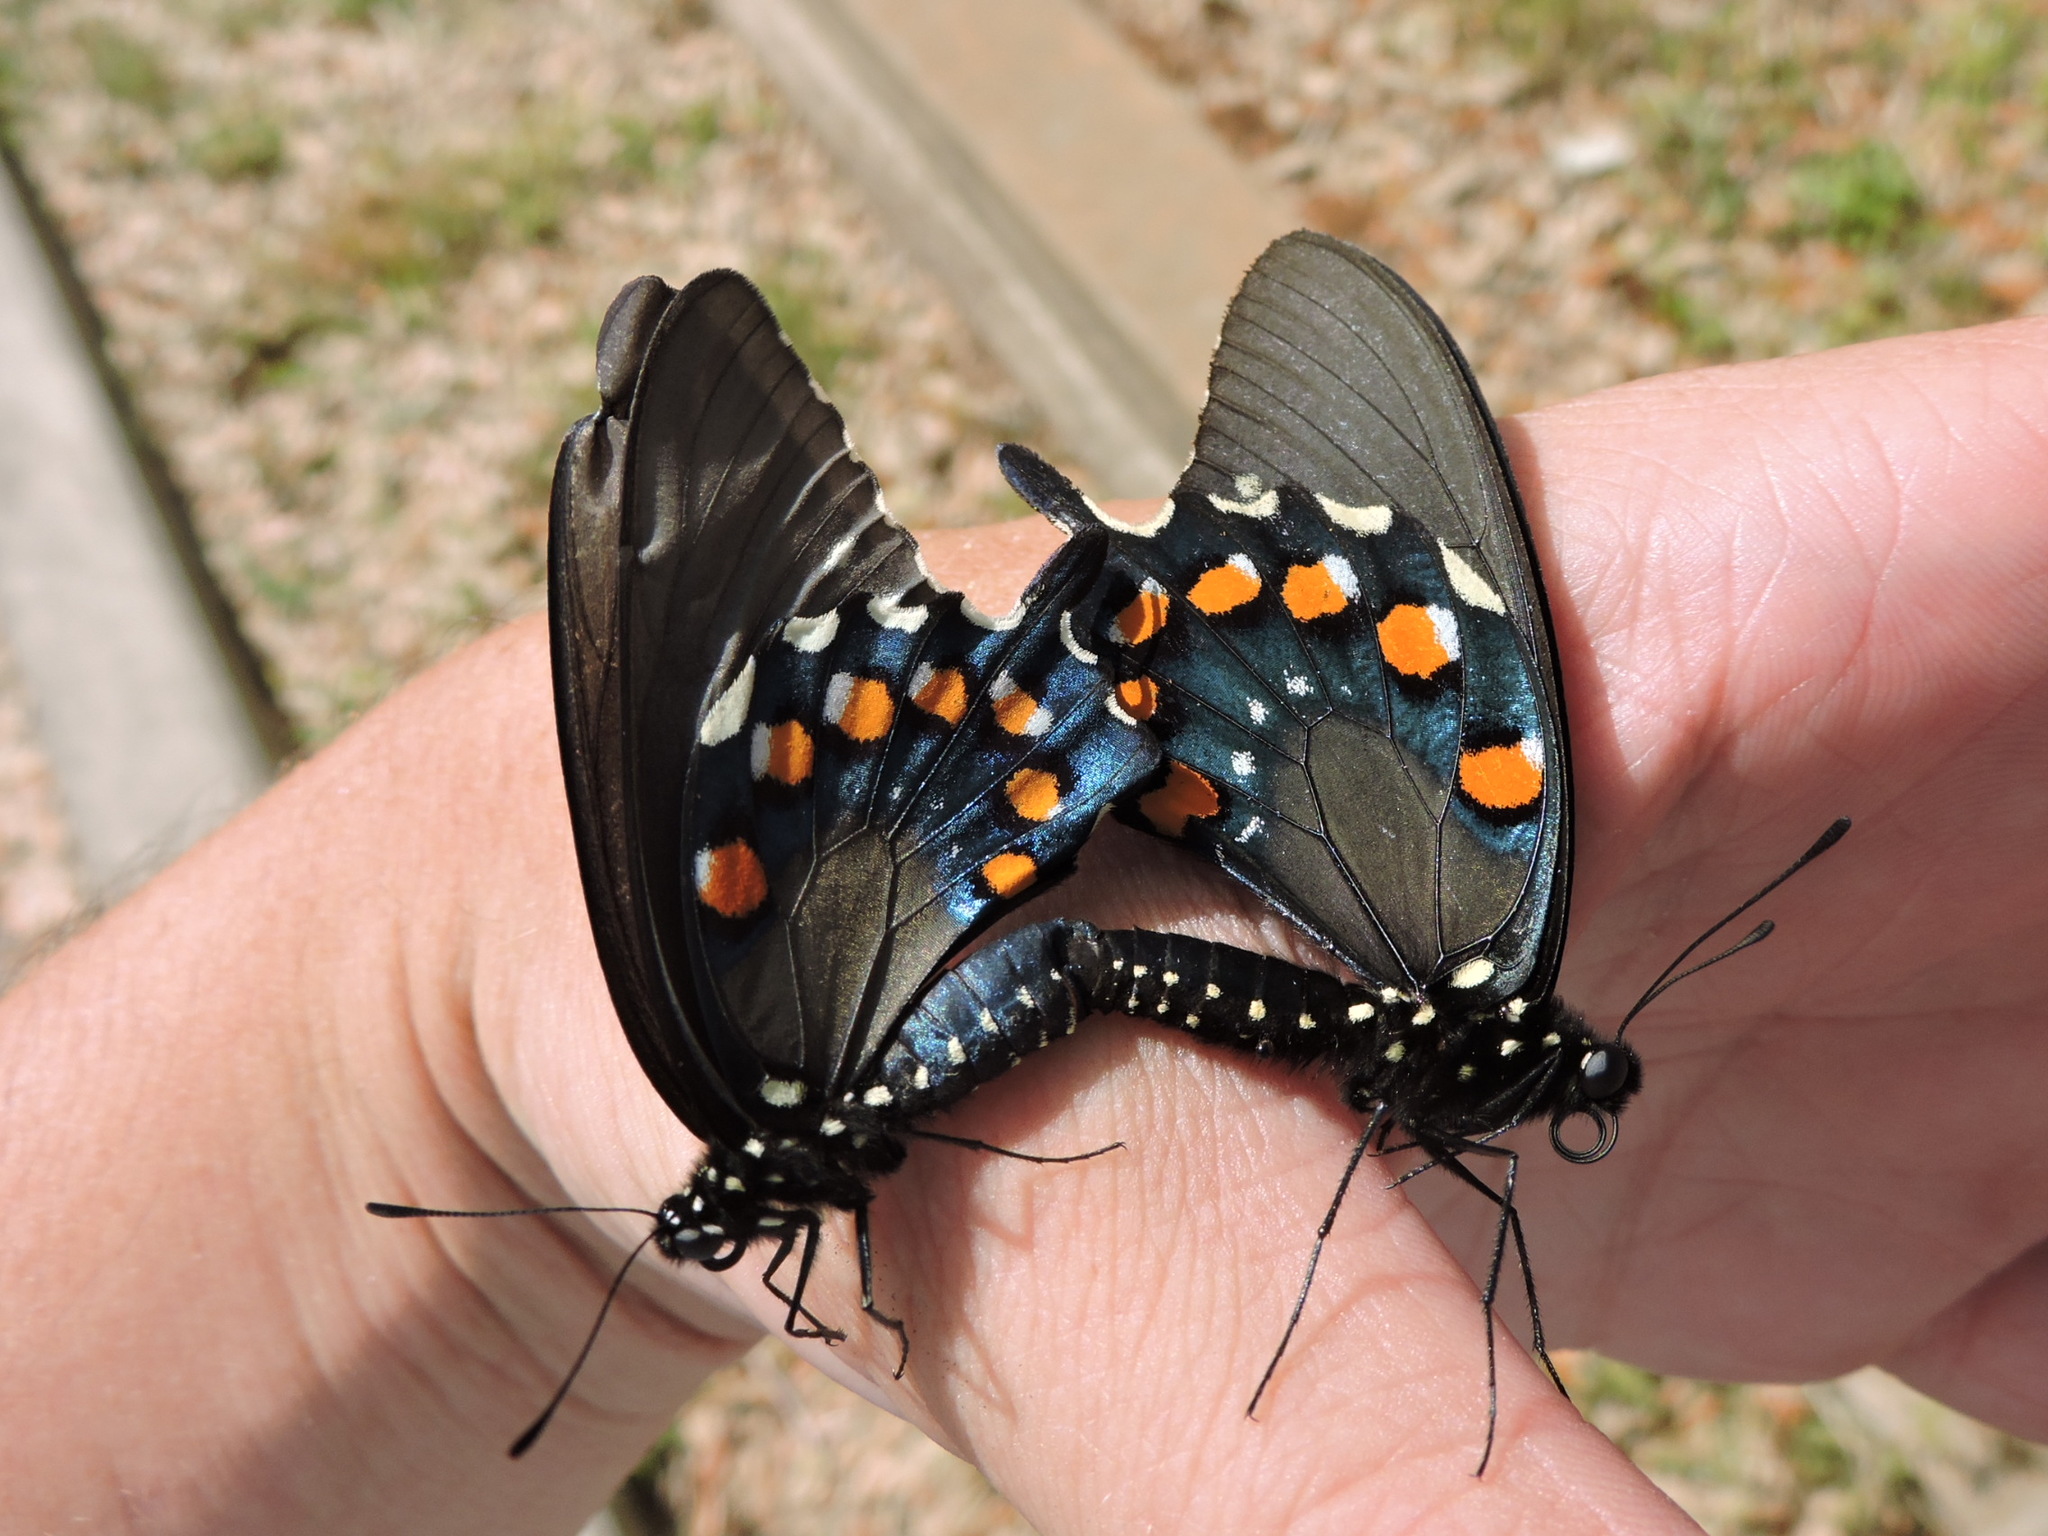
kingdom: Animalia
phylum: Arthropoda
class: Insecta
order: Lepidoptera
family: Papilionidae
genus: Battus
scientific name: Battus philenor
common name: Pipevine swallowtail
